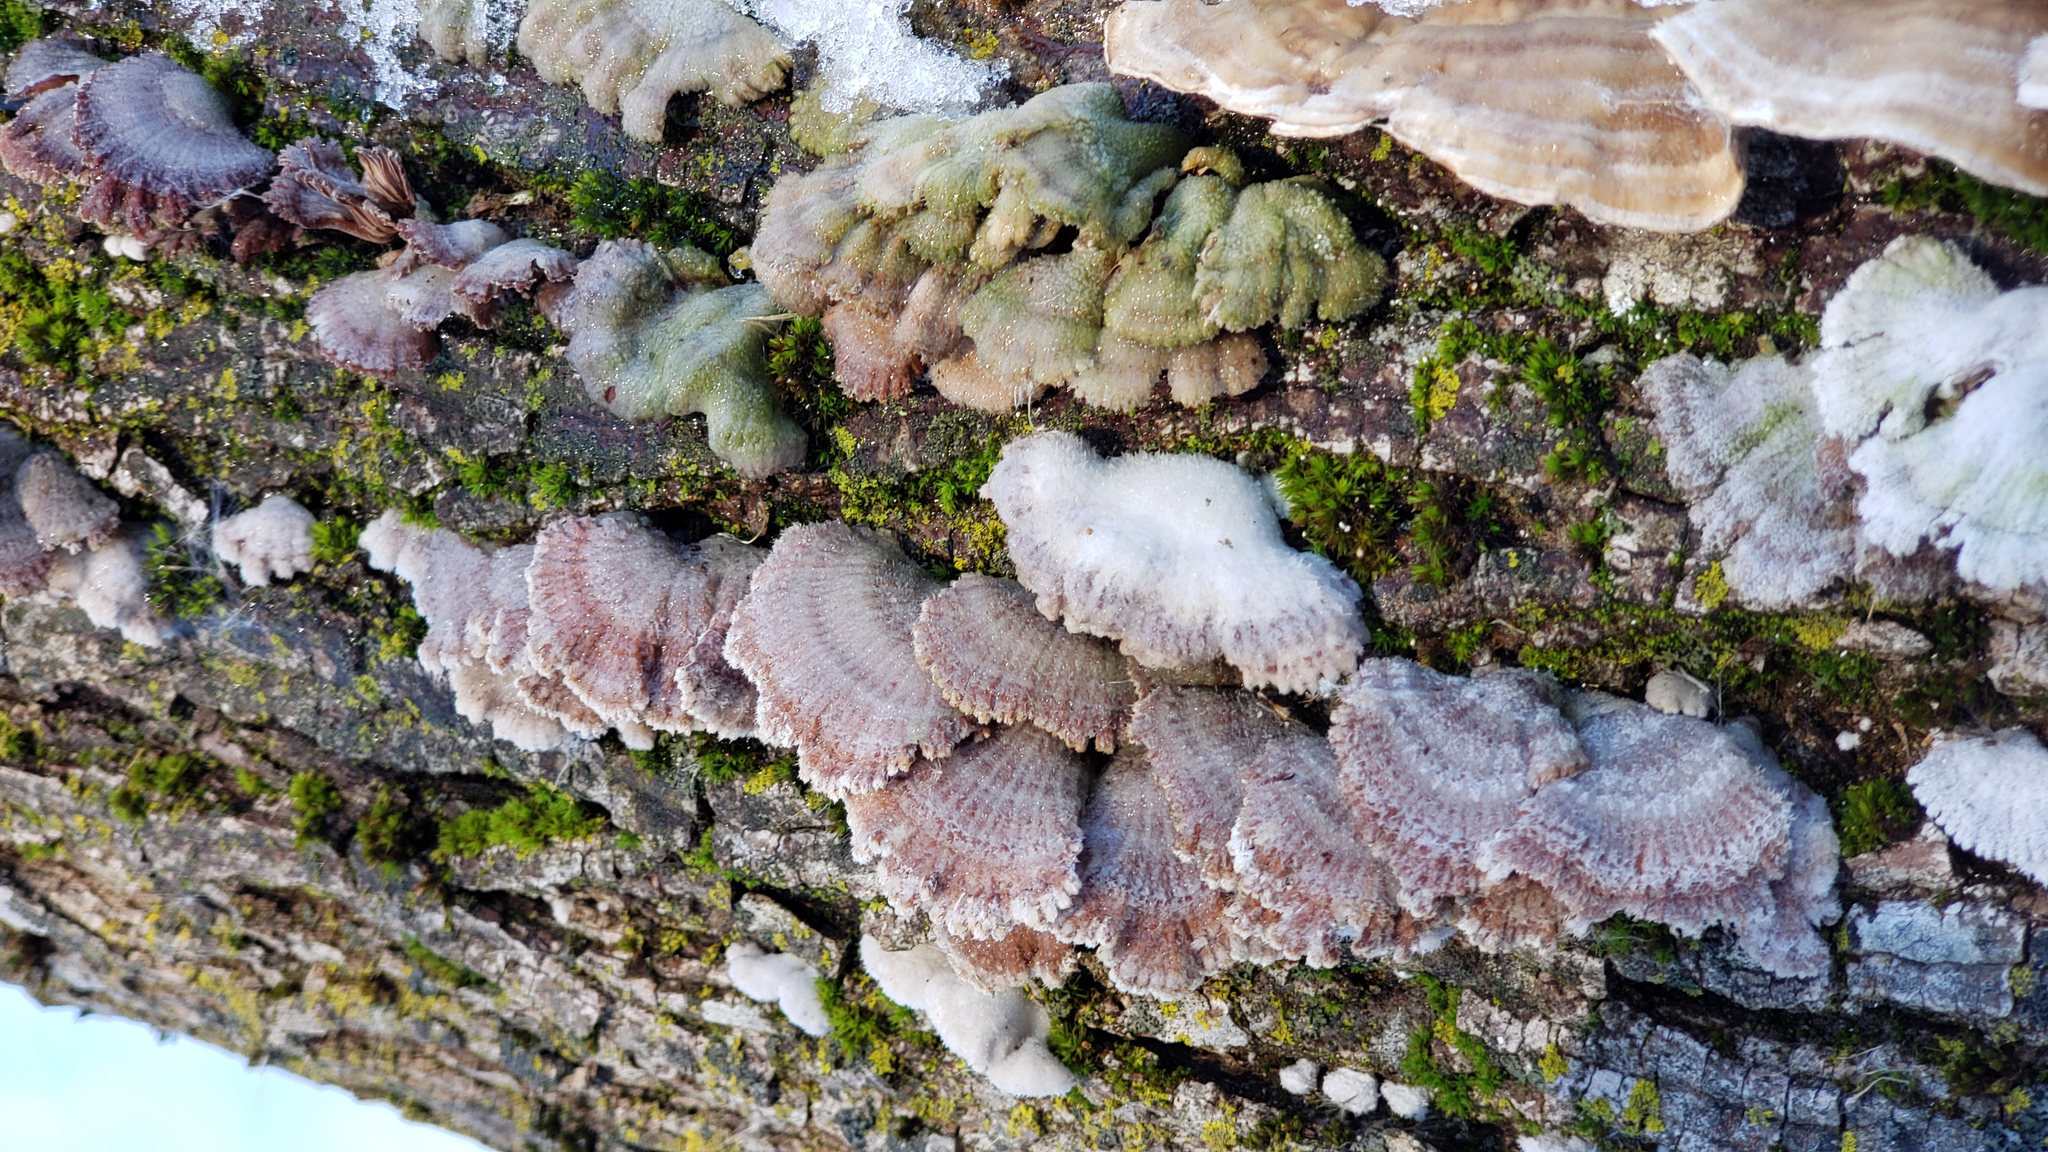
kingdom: Fungi
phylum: Basidiomycota
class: Agaricomycetes
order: Agaricales
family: Schizophyllaceae
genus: Schizophyllum
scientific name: Schizophyllum commune
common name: Common porecrust
